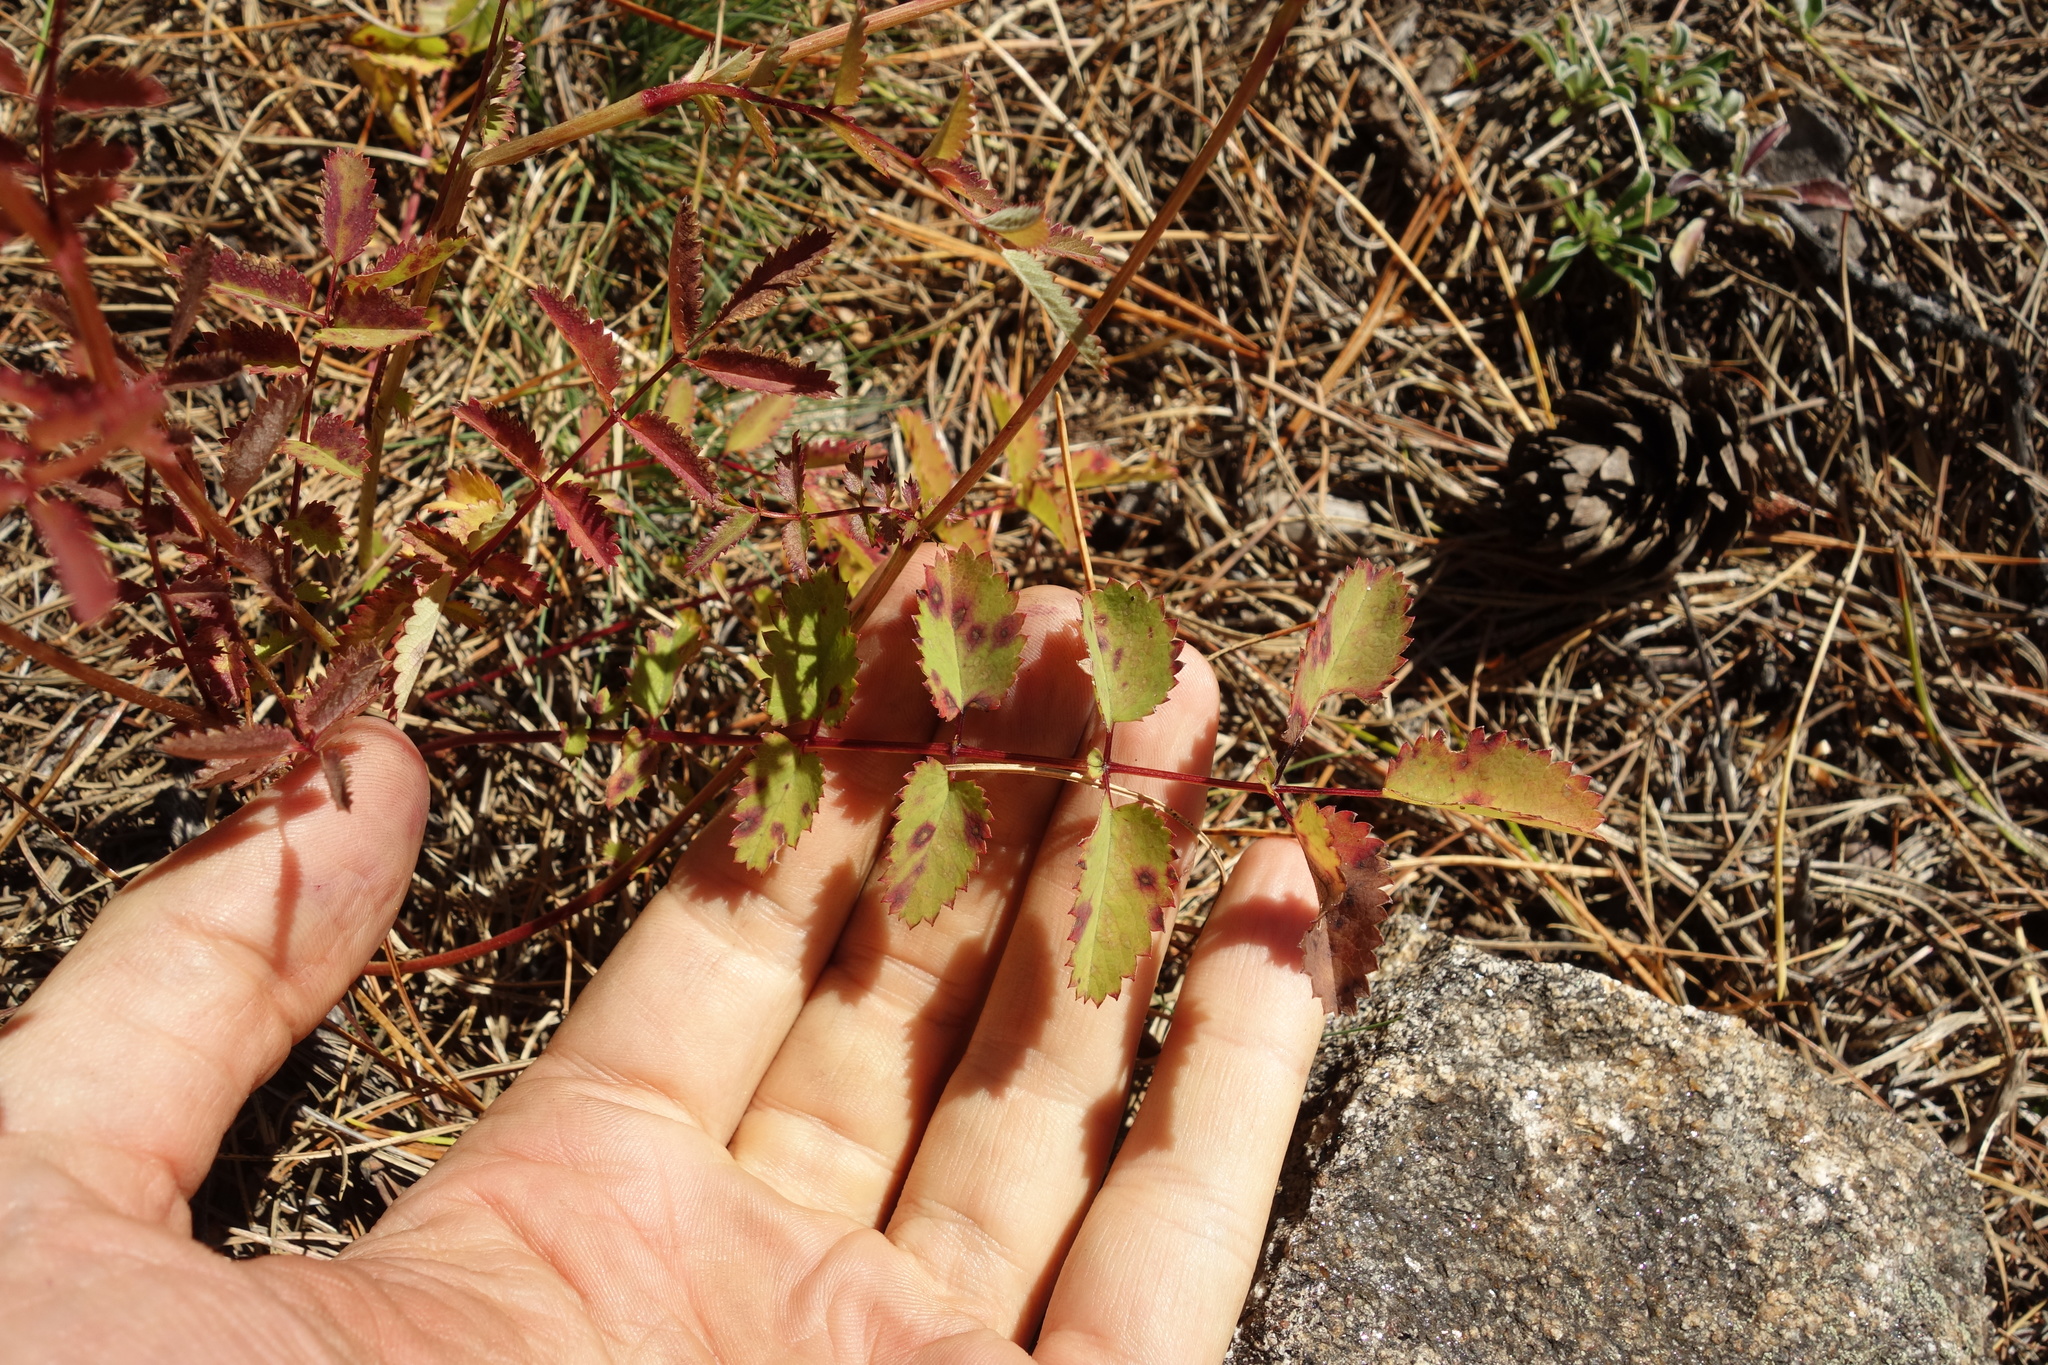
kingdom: Plantae
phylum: Tracheophyta
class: Magnoliopsida
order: Rosales
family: Rosaceae
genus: Sanguisorba
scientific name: Sanguisorba officinalis
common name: Great burnet
